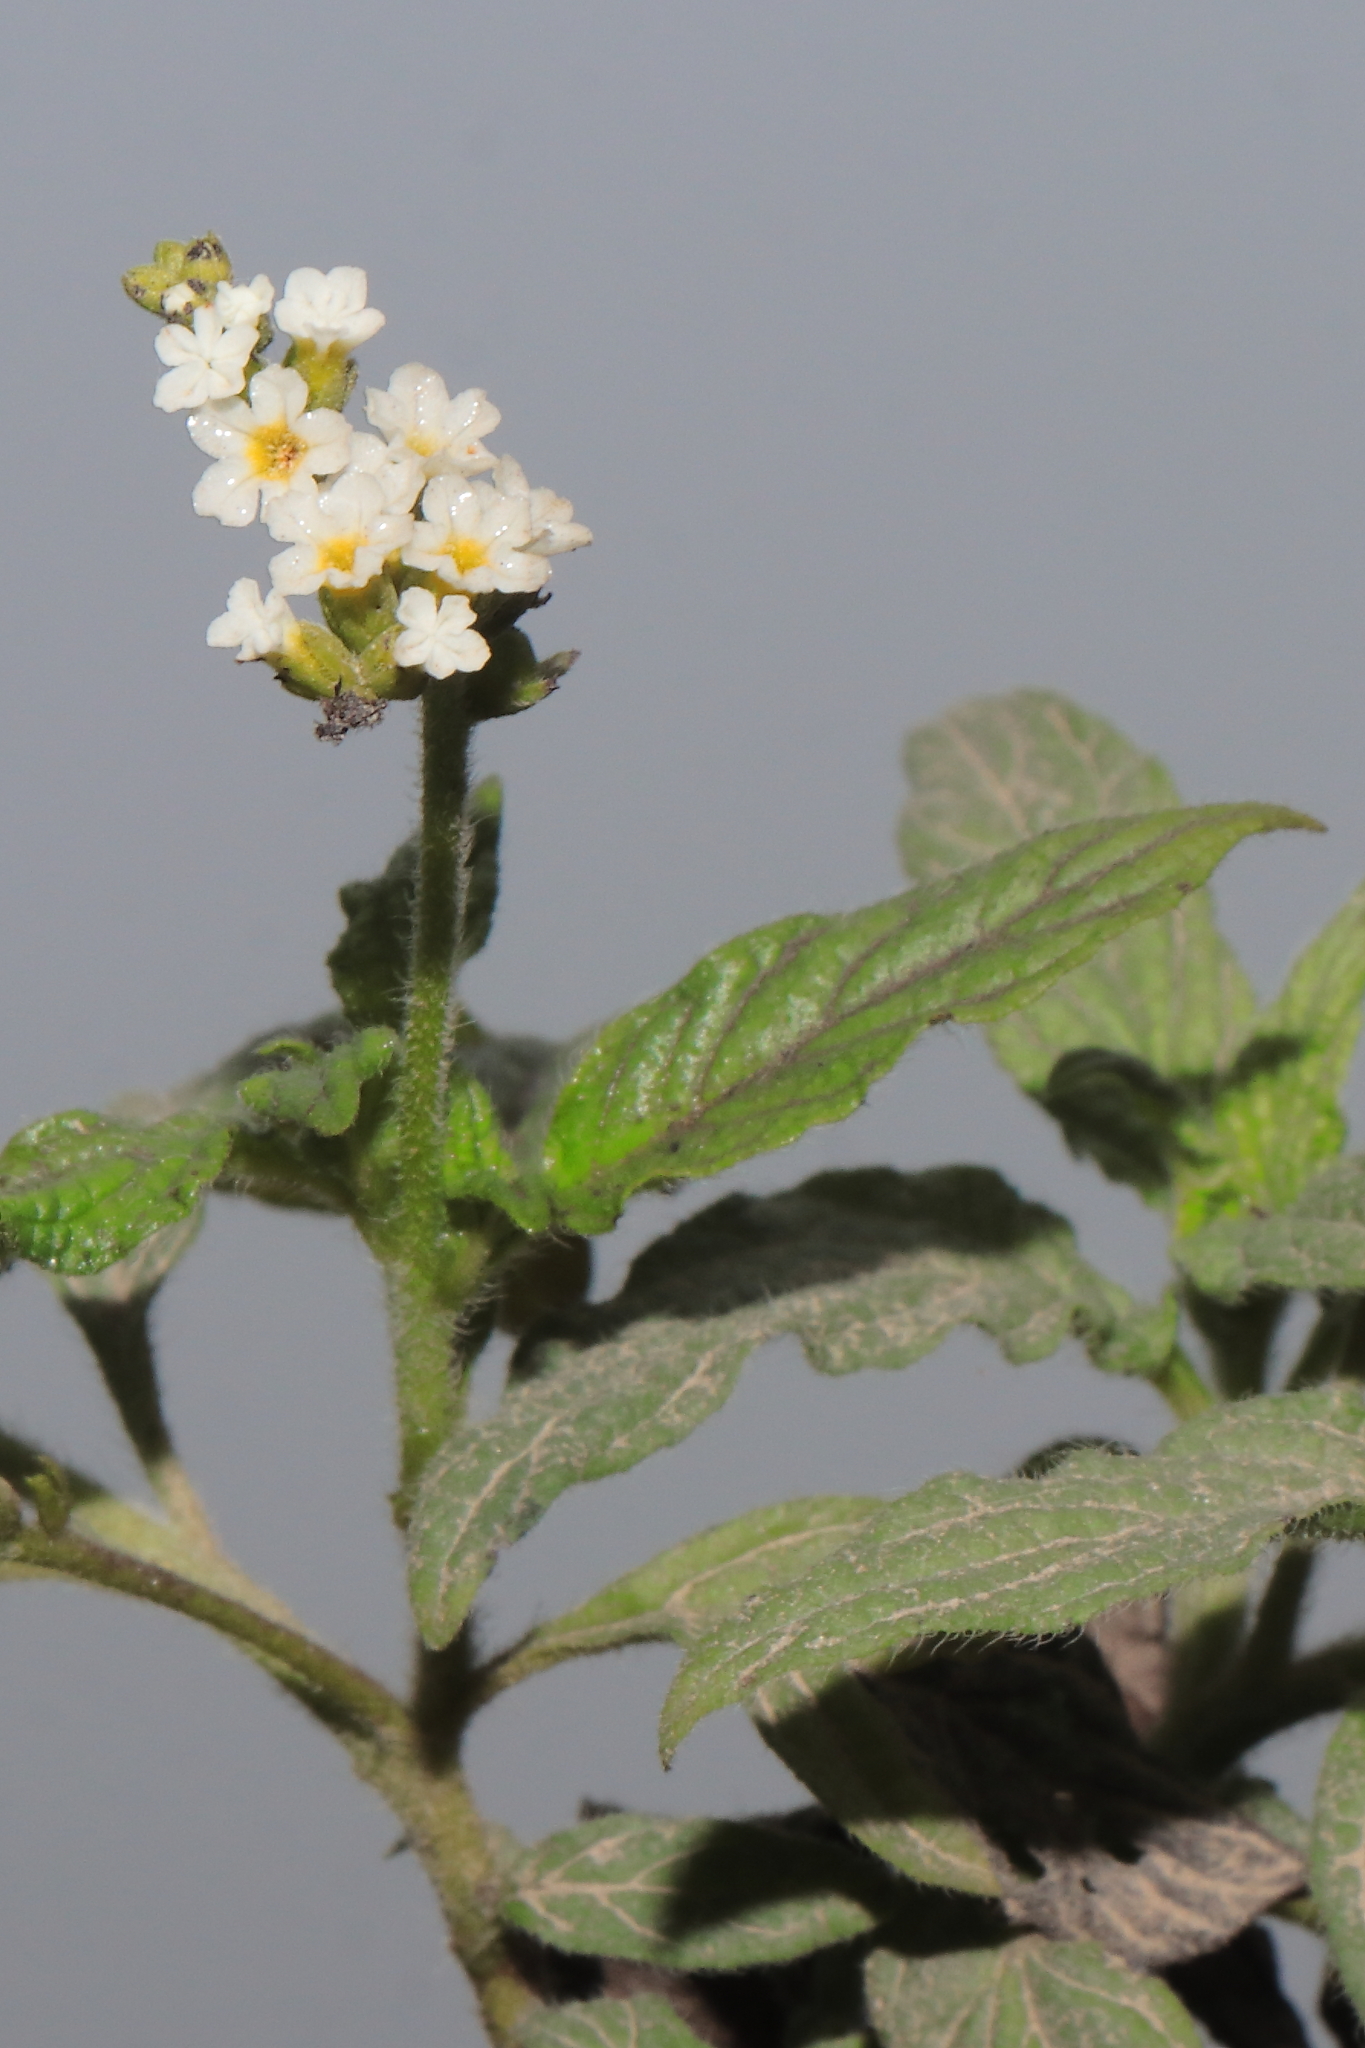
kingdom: Plantae
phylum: Tracheophyta
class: Magnoliopsida
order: Boraginales
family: Heliotropiaceae
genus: Heliotropium
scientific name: Heliotropium angiospermum
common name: Eye bright
